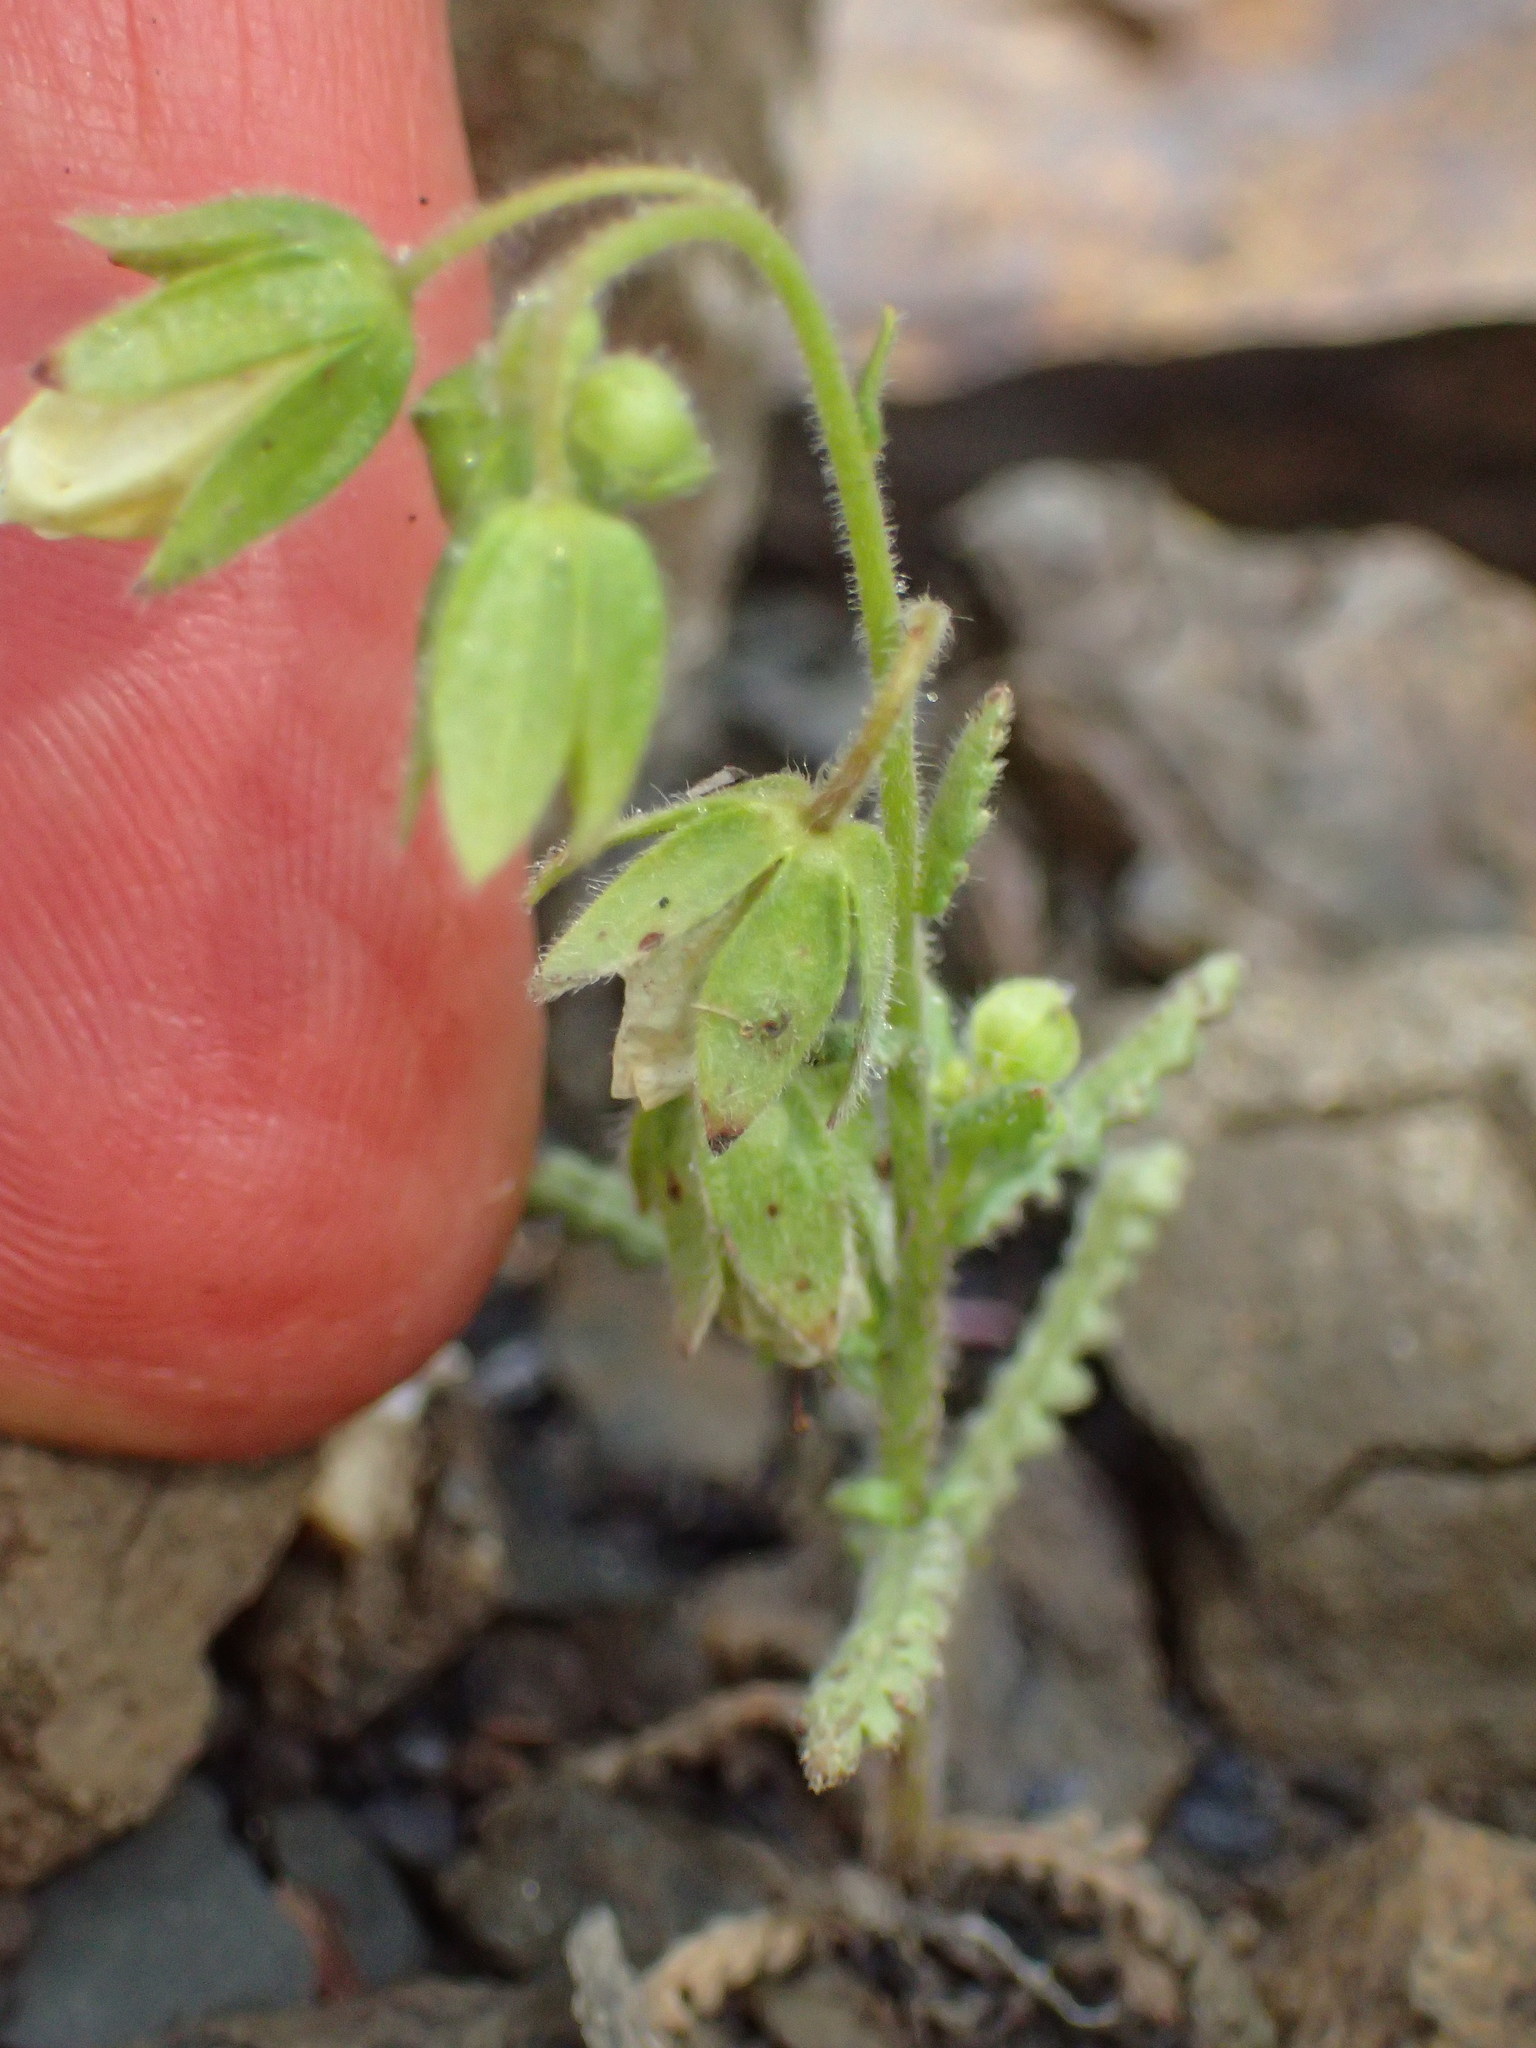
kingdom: Plantae
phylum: Tracheophyta
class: Magnoliopsida
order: Boraginales
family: Hydrophyllaceae
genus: Emmenanthe
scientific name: Emmenanthe penduliflora
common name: Whispering-bells
